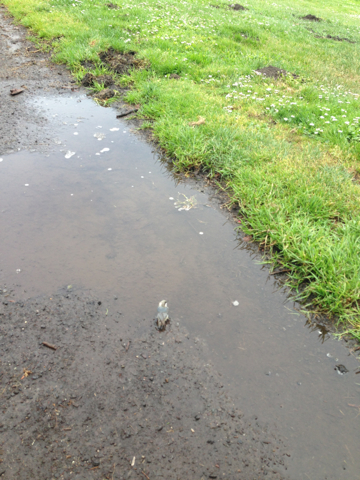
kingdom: Animalia
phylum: Chordata
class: Aves
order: Passeriformes
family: Sittidae
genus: Sitta
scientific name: Sitta pygmaea
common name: Pygmy nuthatch
